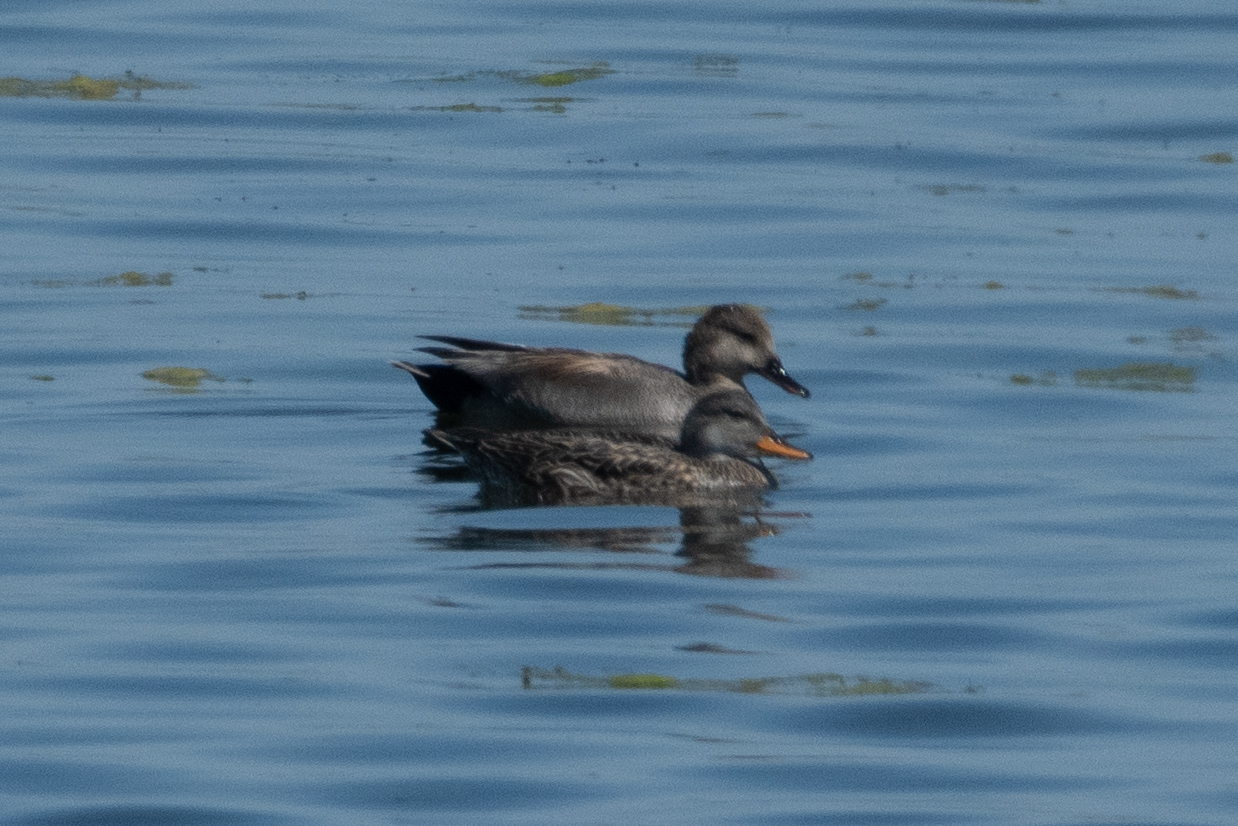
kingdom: Animalia
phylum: Chordata
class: Aves
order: Anseriformes
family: Anatidae
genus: Mareca
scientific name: Mareca strepera
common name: Gadwall
